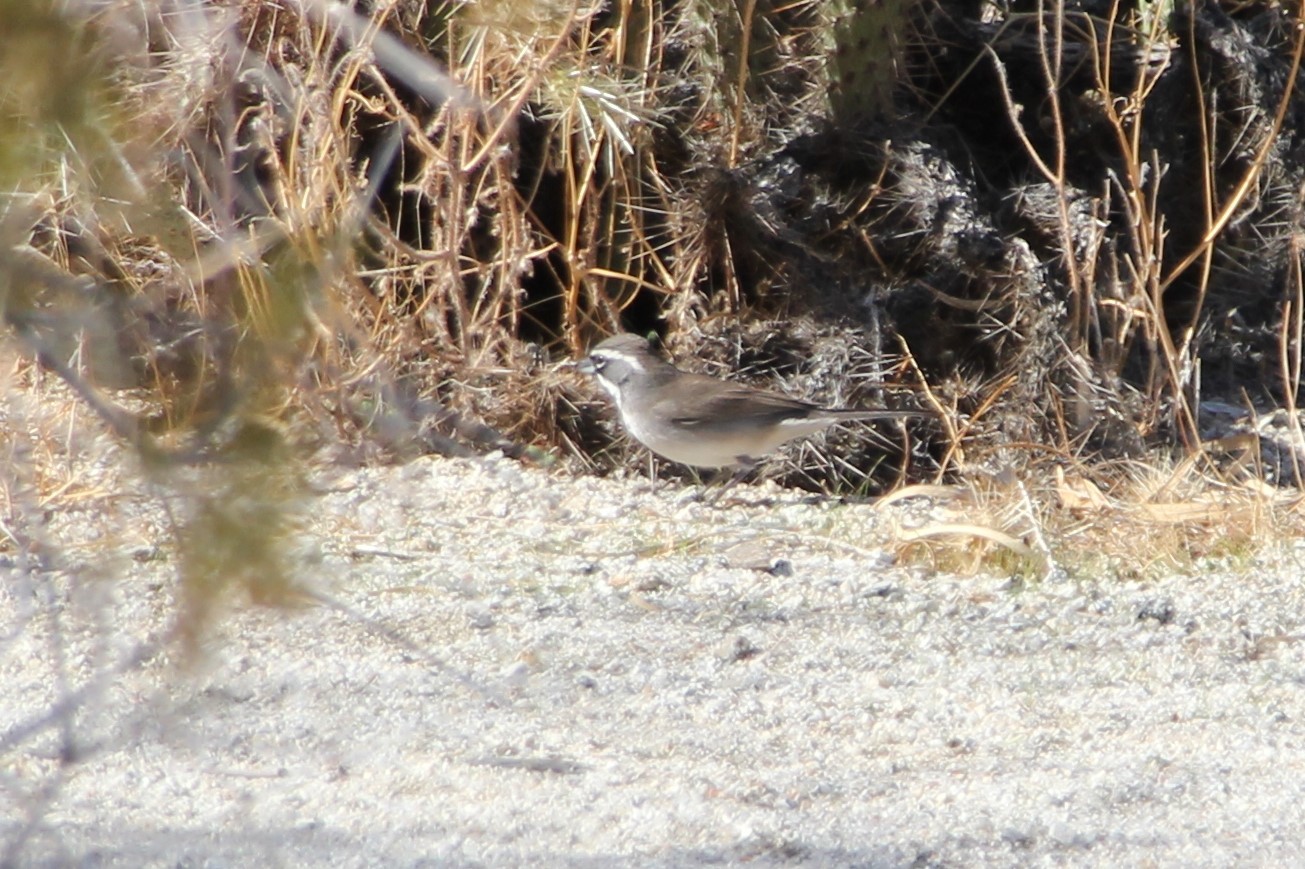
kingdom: Animalia
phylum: Chordata
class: Aves
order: Passeriformes
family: Passerellidae
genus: Amphispiza
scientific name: Amphispiza bilineata
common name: Black-throated sparrow
